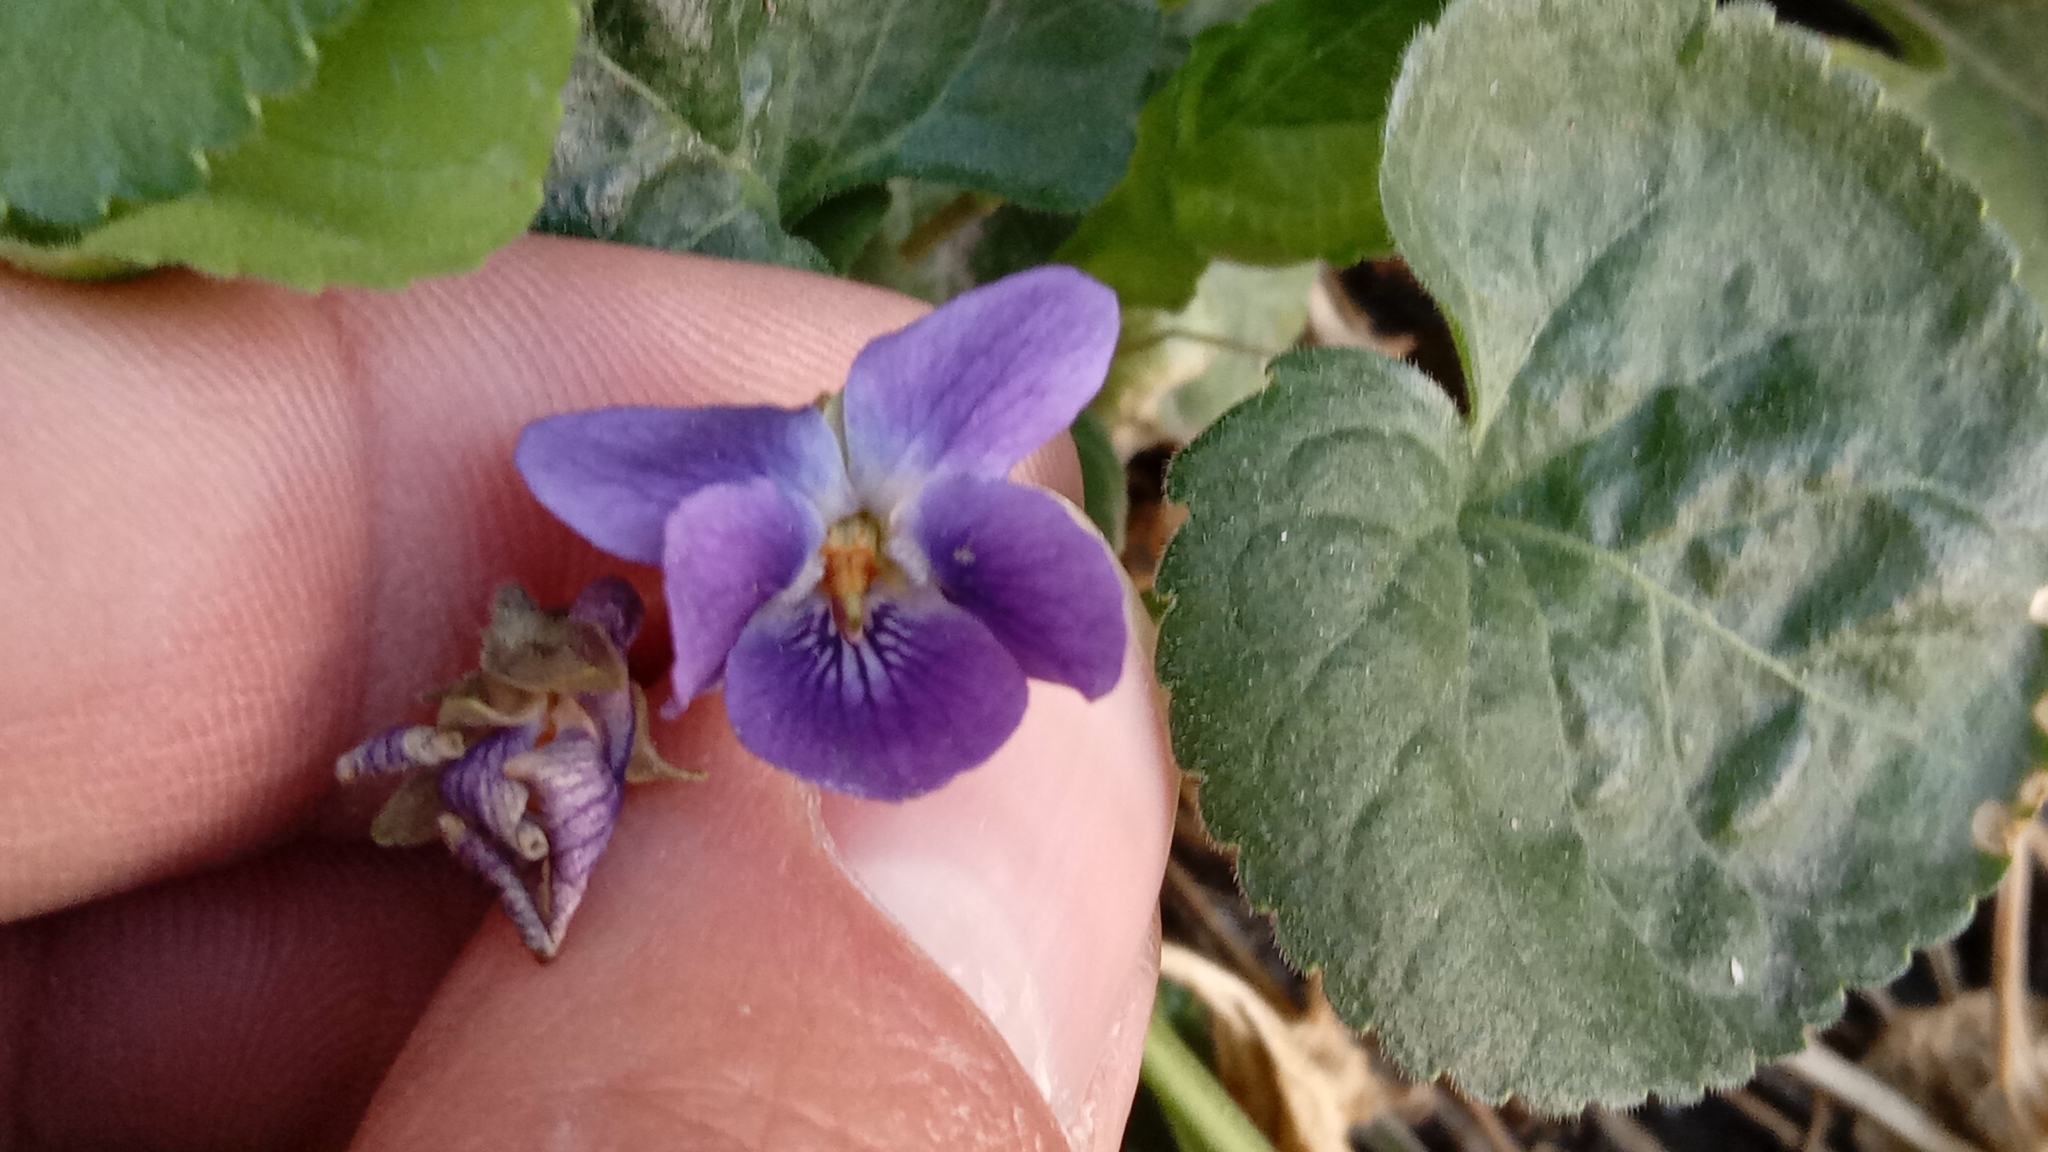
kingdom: Plantae
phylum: Tracheophyta
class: Magnoliopsida
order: Malpighiales
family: Violaceae
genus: Viola
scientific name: Viola odorata
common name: Sweet violet
